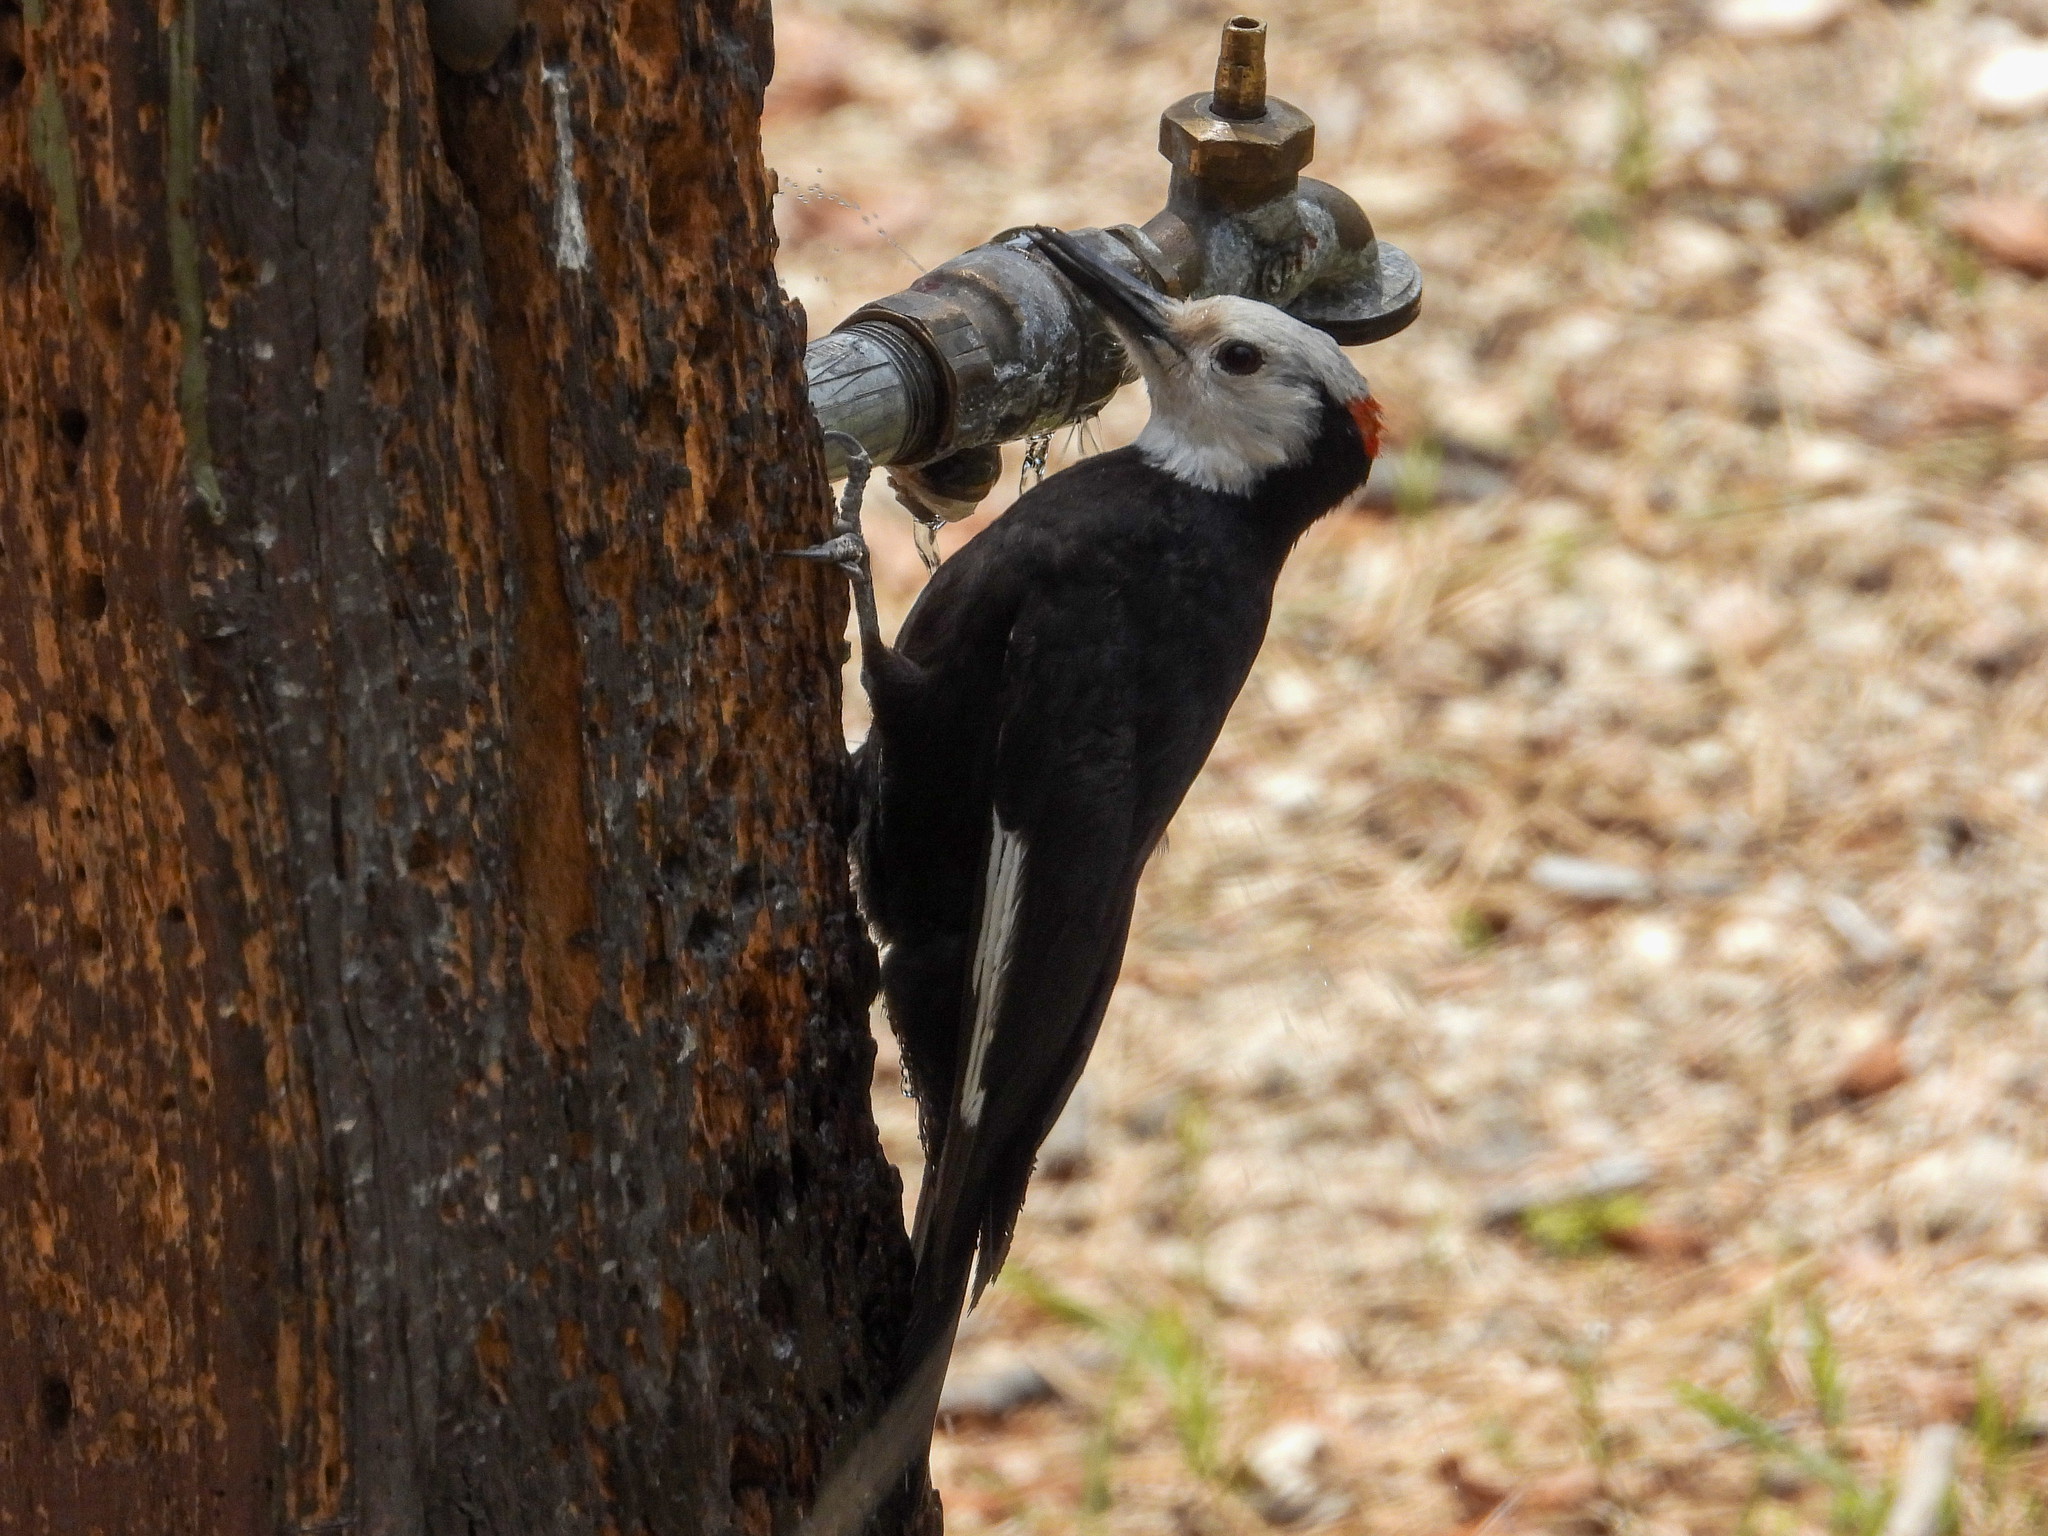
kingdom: Animalia
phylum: Chordata
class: Aves
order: Piciformes
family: Picidae
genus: Leuconotopicus
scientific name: Leuconotopicus albolarvatus
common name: White-headed woodpecker
